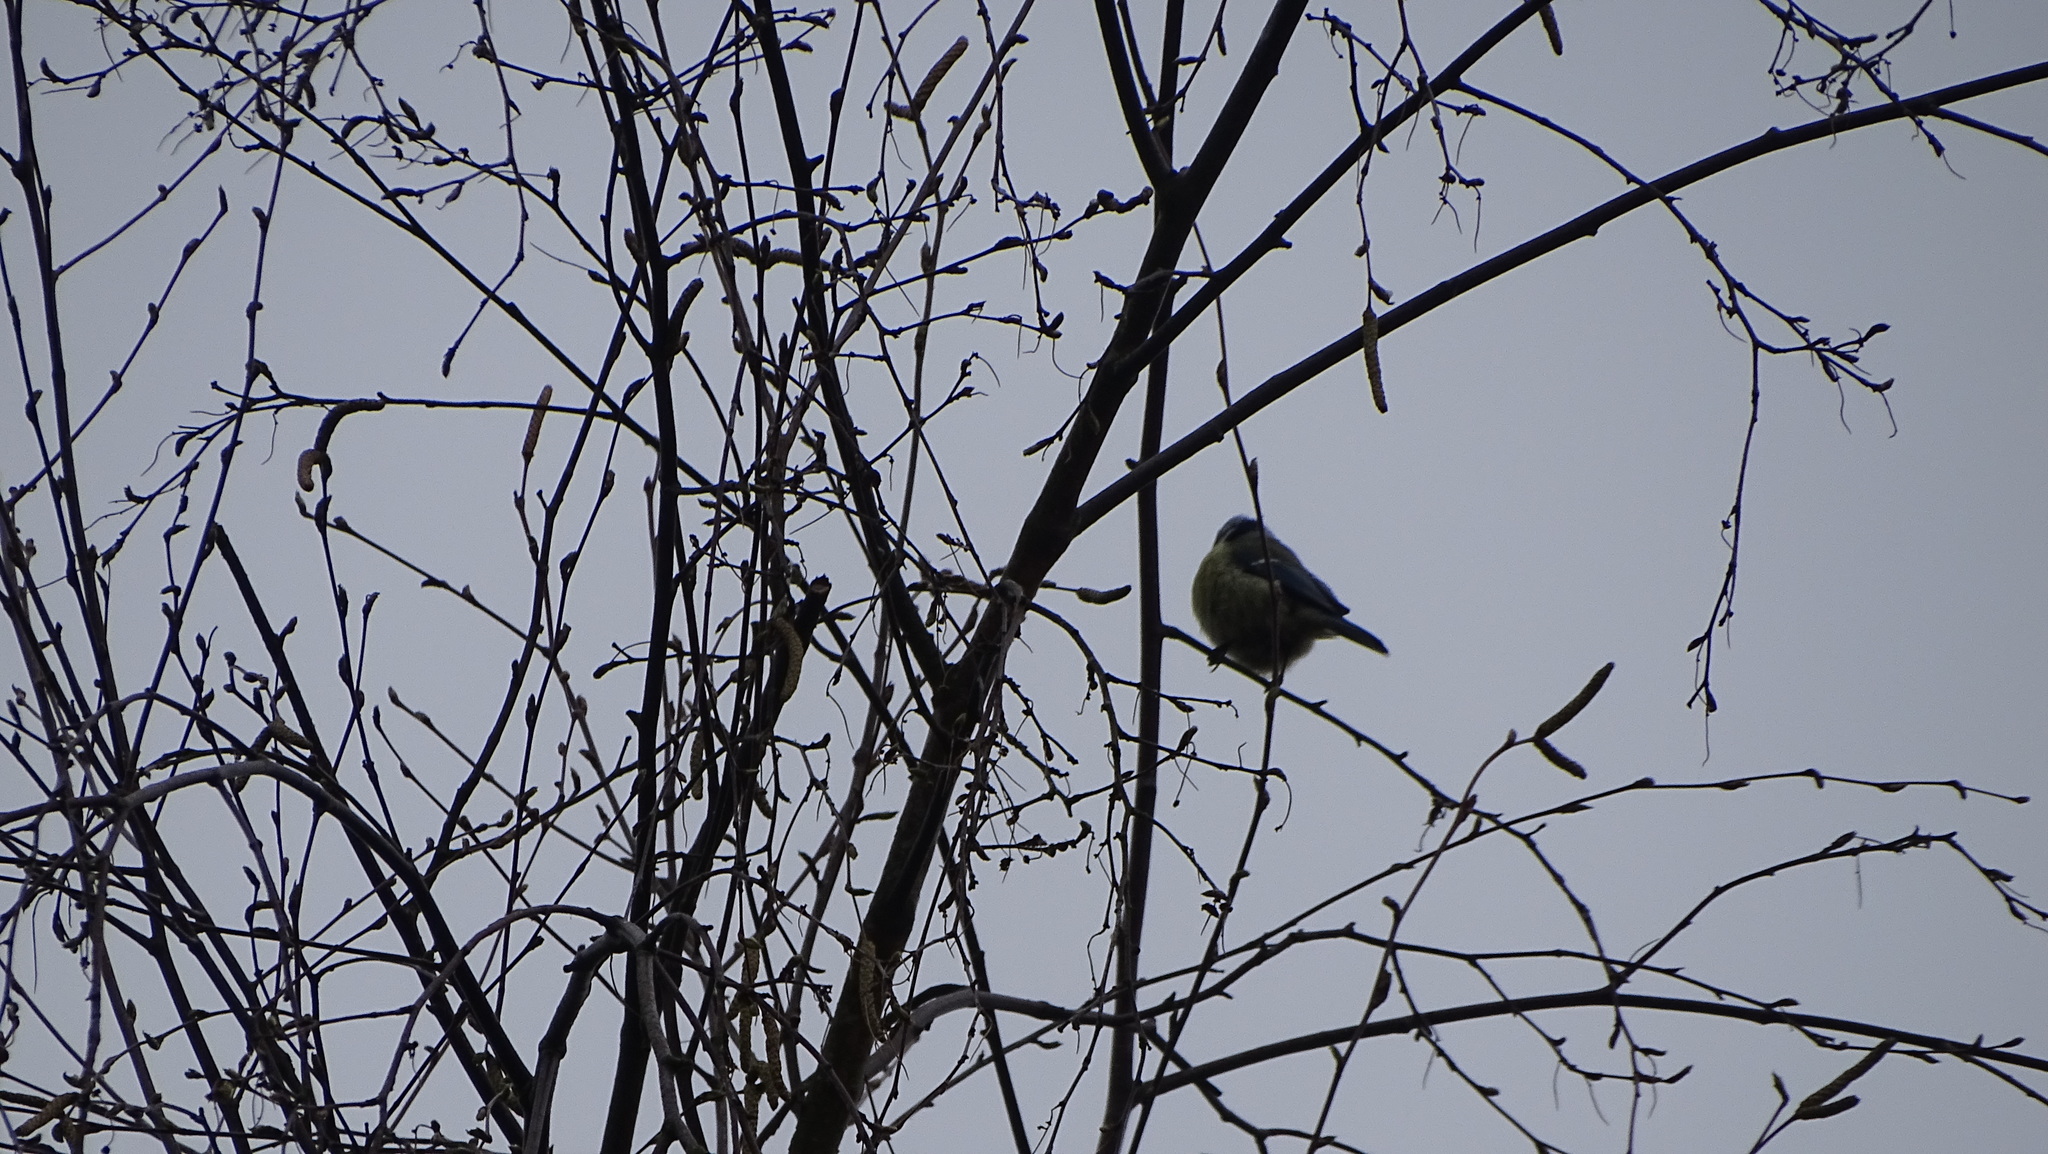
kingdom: Animalia
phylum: Chordata
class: Aves
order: Passeriformes
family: Paridae
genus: Cyanistes
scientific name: Cyanistes caeruleus
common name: Eurasian blue tit
